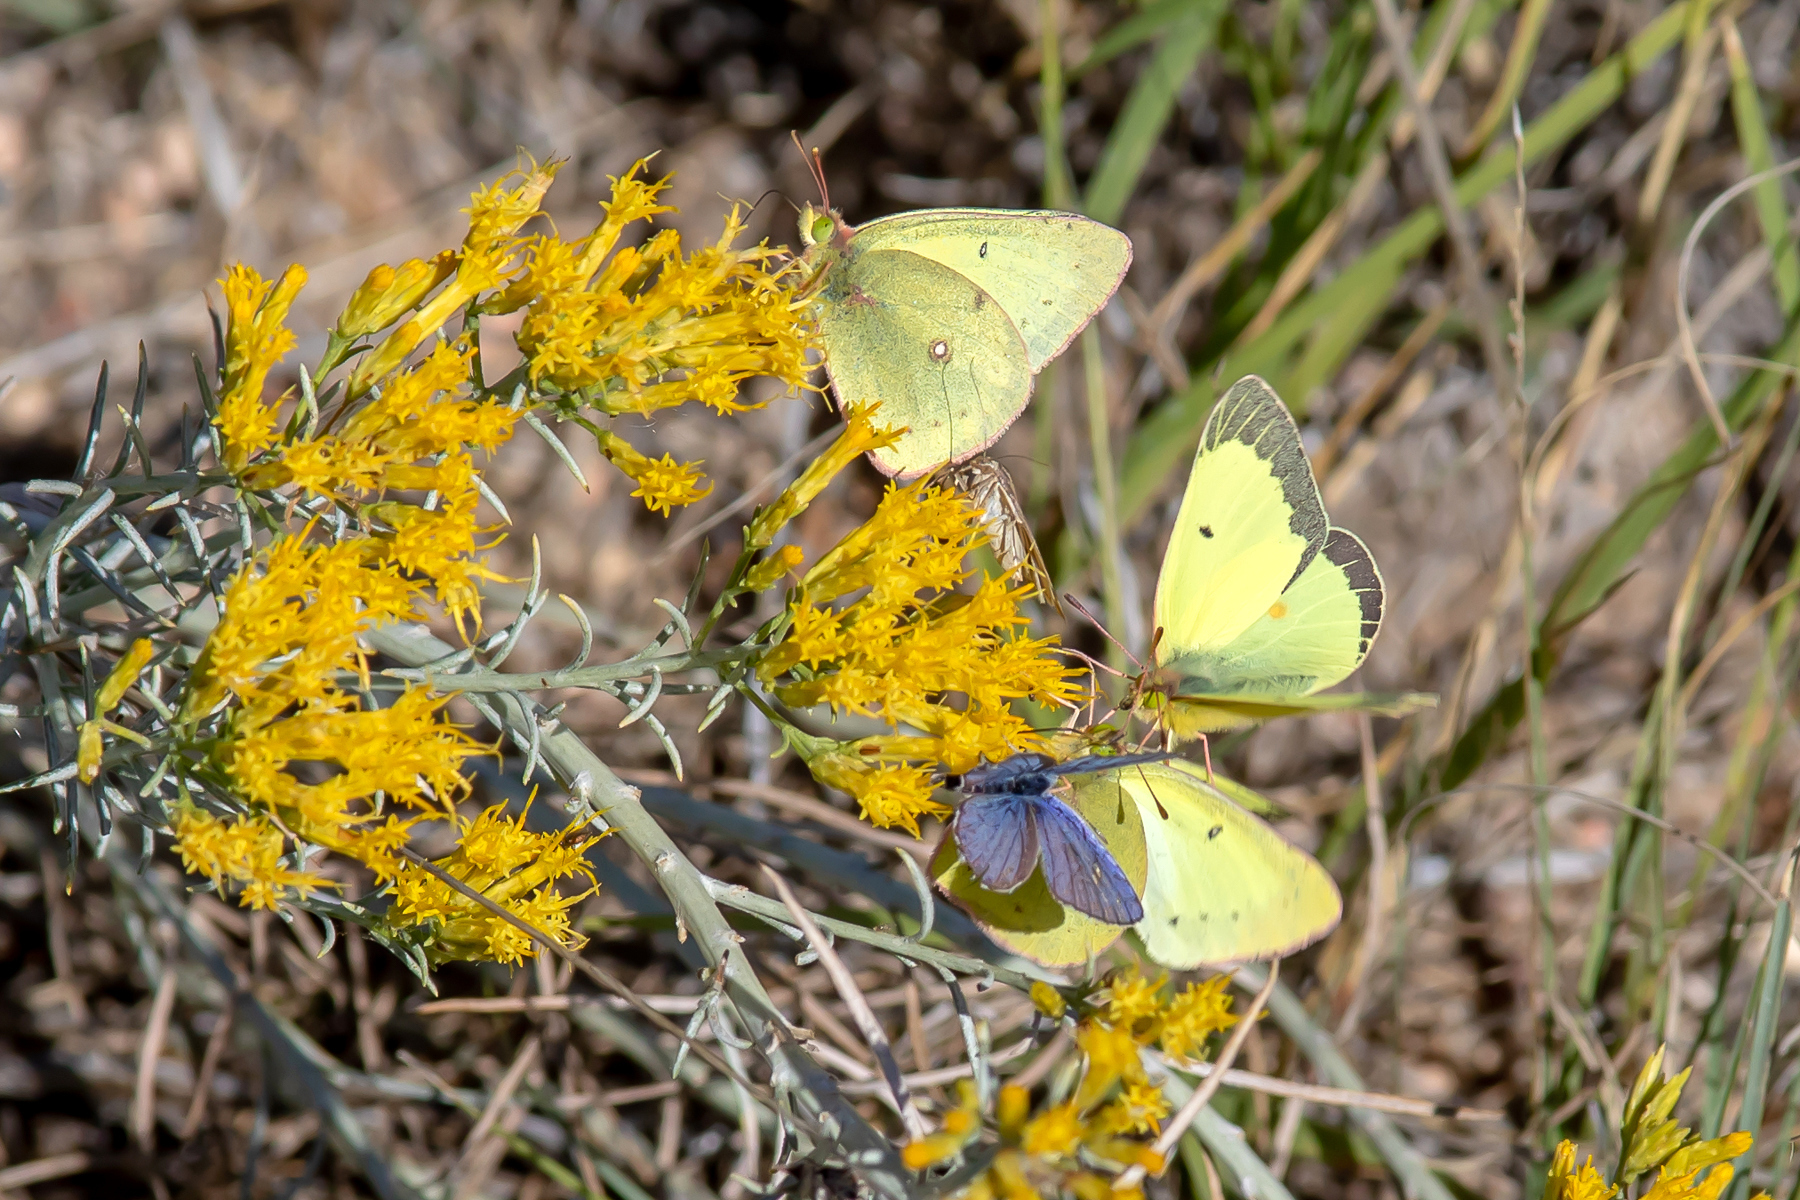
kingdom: Plantae
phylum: Tracheophyta
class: Magnoliopsida
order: Asterales
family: Asteraceae
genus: Ericameria
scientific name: Ericameria nauseosa
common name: Rubber rabbitbrush
